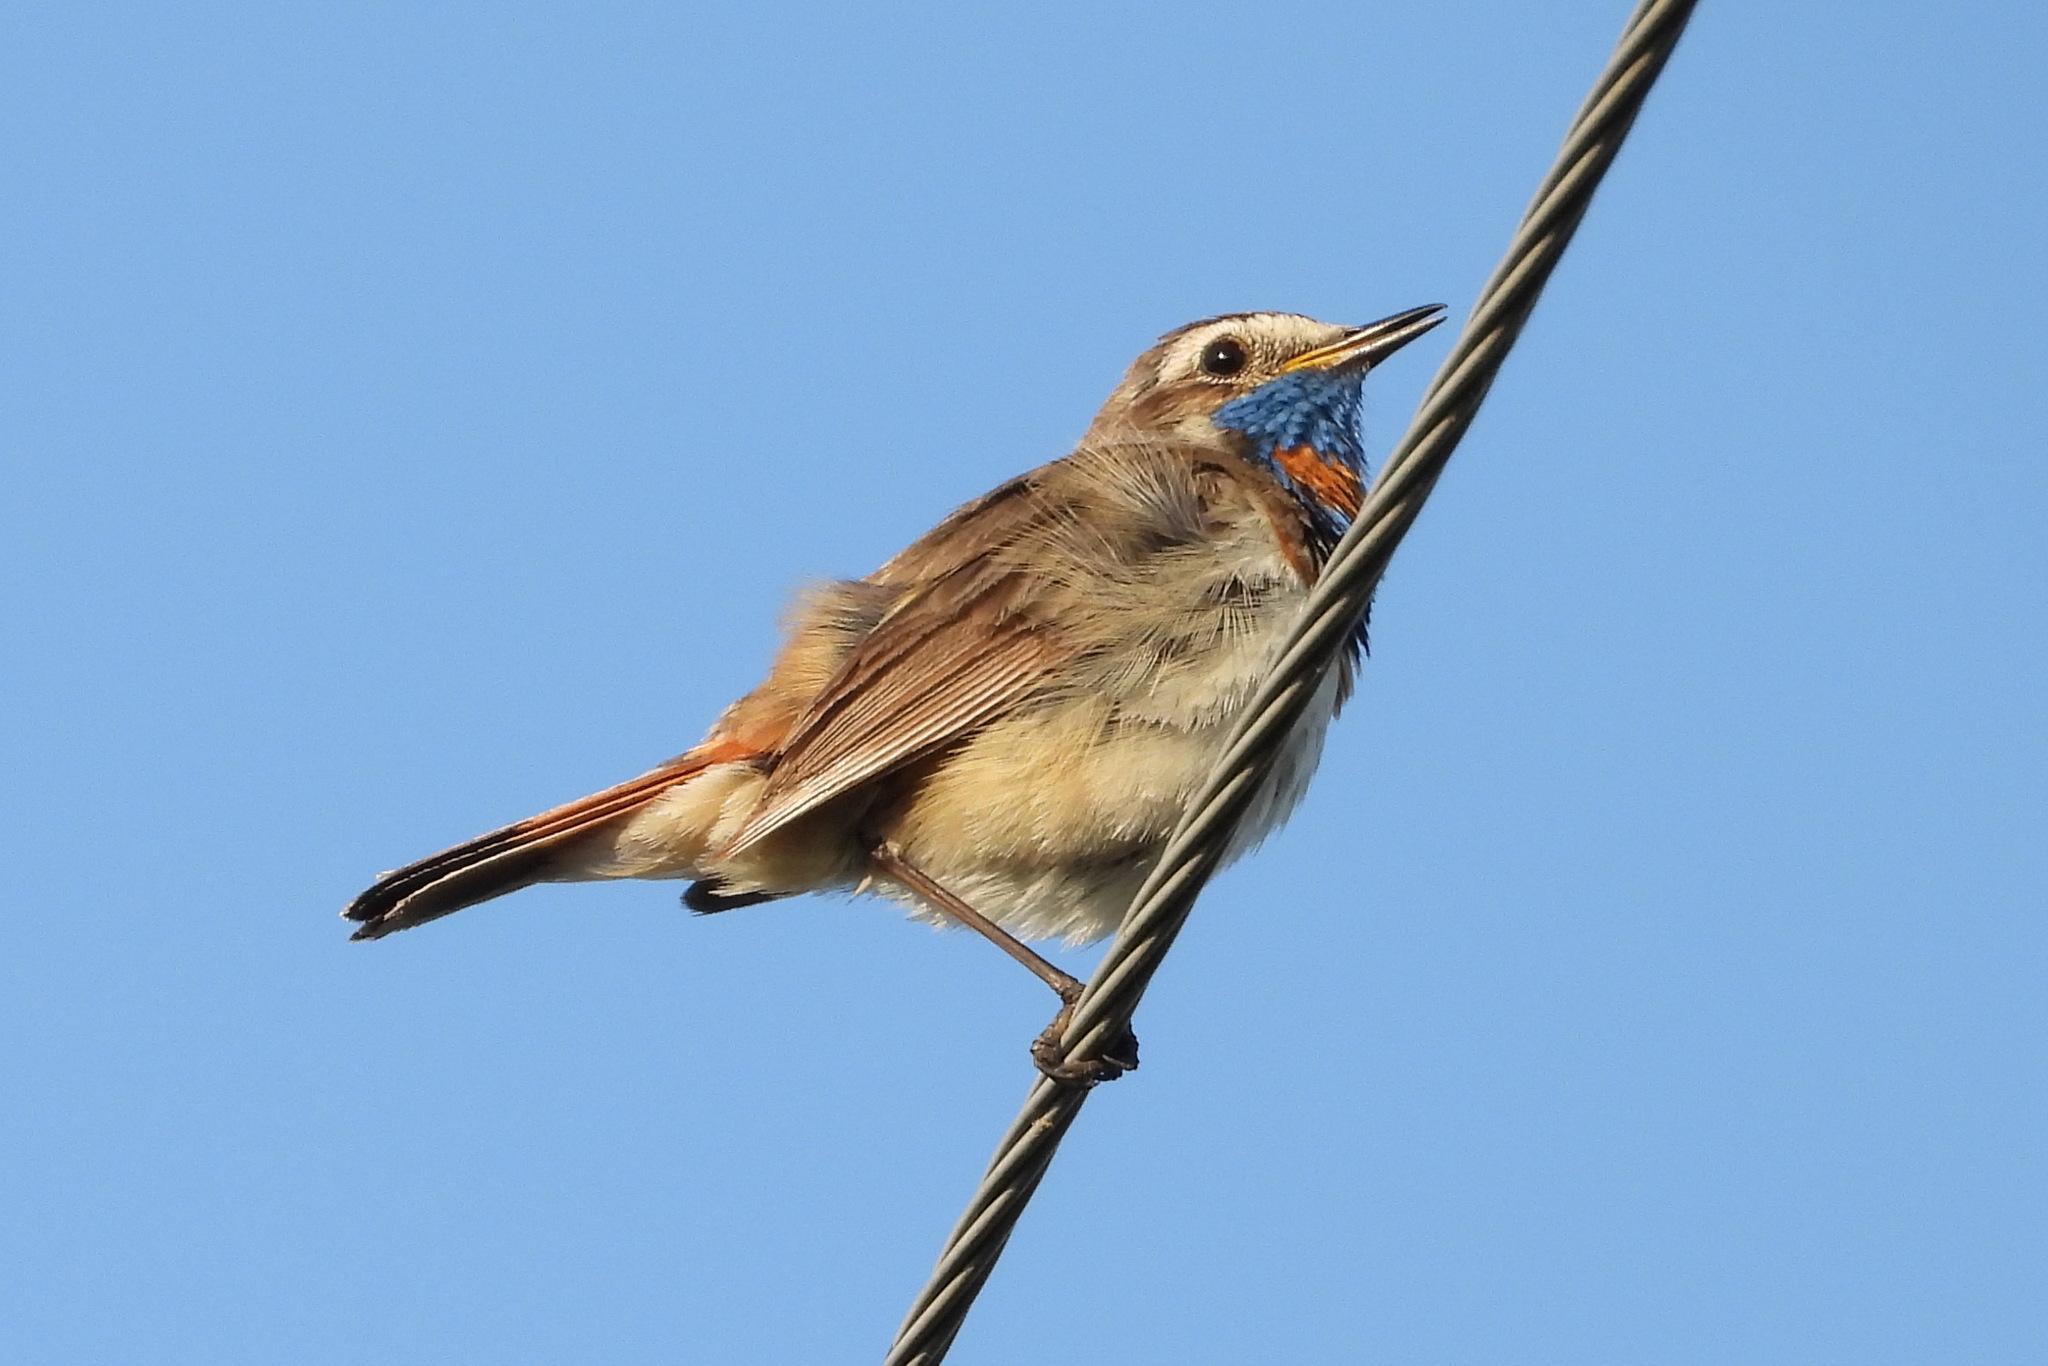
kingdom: Animalia
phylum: Chordata
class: Aves
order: Passeriformes
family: Muscicapidae
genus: Luscinia
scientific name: Luscinia svecica
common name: Bluethroat
